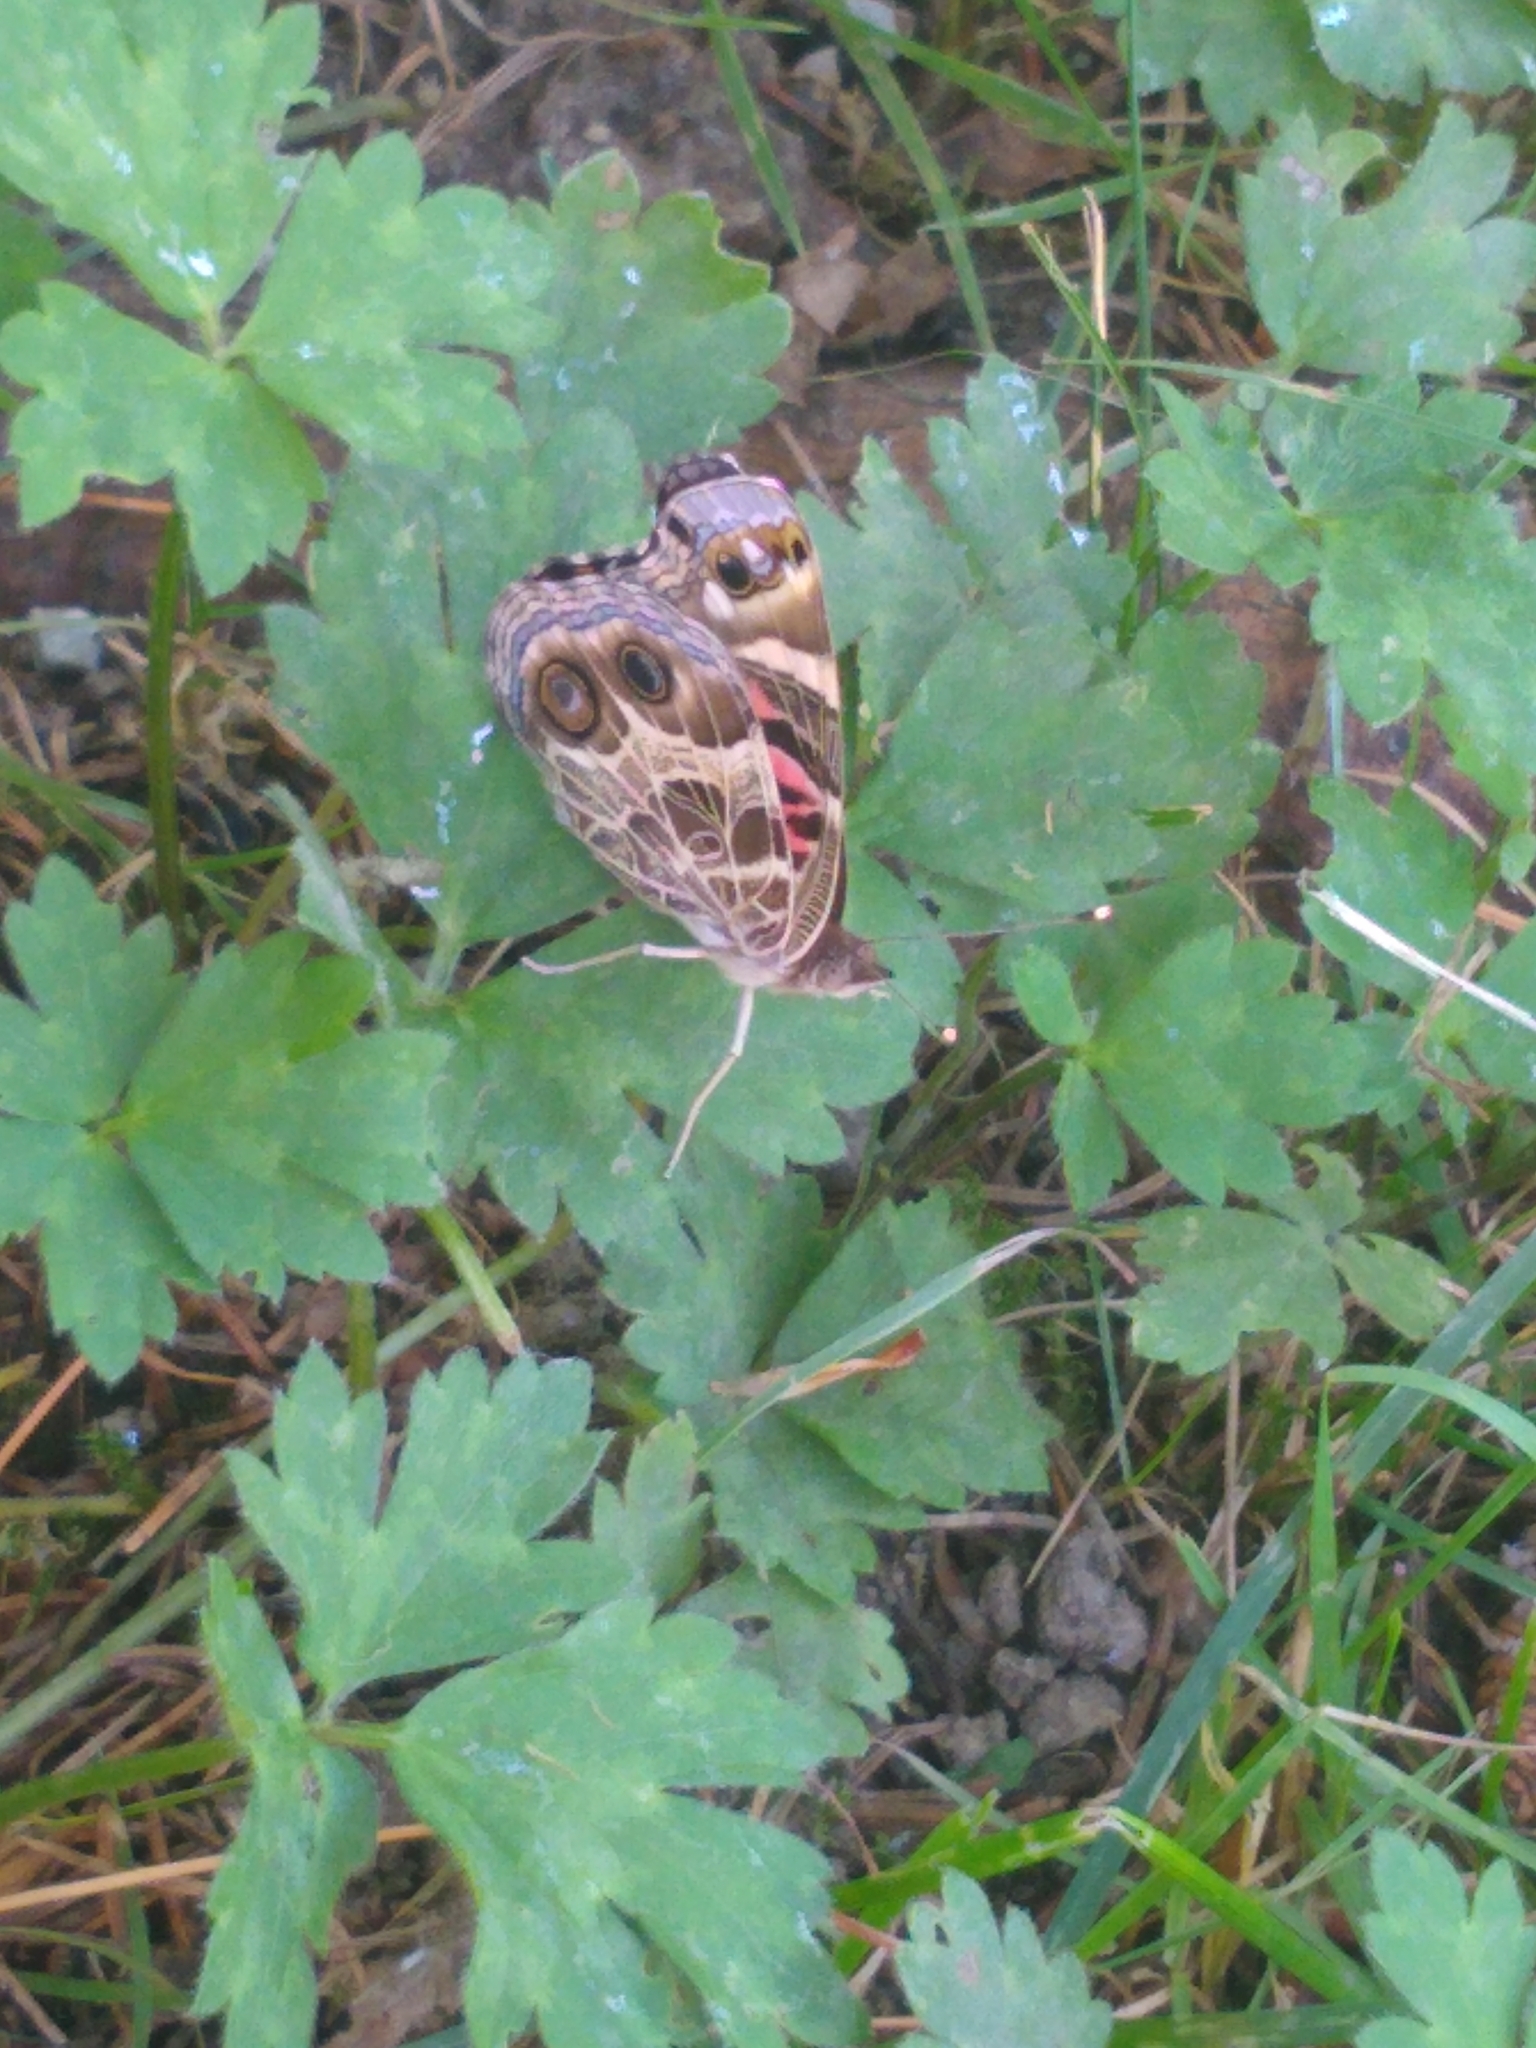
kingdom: Animalia
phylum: Arthropoda
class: Insecta
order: Lepidoptera
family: Nymphalidae
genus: Vanessa
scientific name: Vanessa virginiensis
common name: American lady
